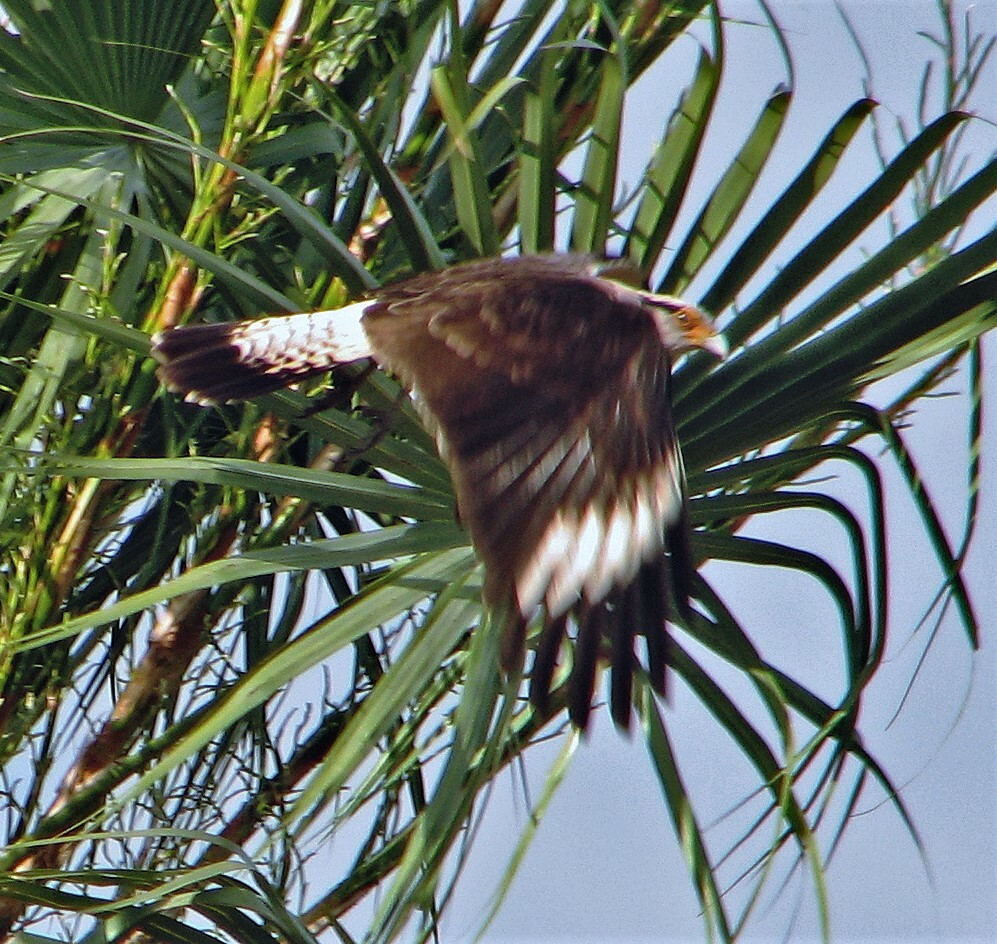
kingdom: Animalia
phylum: Chordata
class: Aves
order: Falconiformes
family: Falconidae
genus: Daptrius
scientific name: Daptrius
